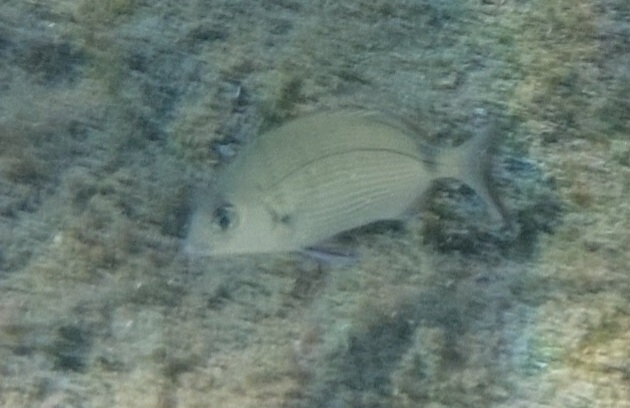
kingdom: Animalia
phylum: Chordata
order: Perciformes
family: Sparidae
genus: Diplodus
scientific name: Diplodus sargus
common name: White seabream
